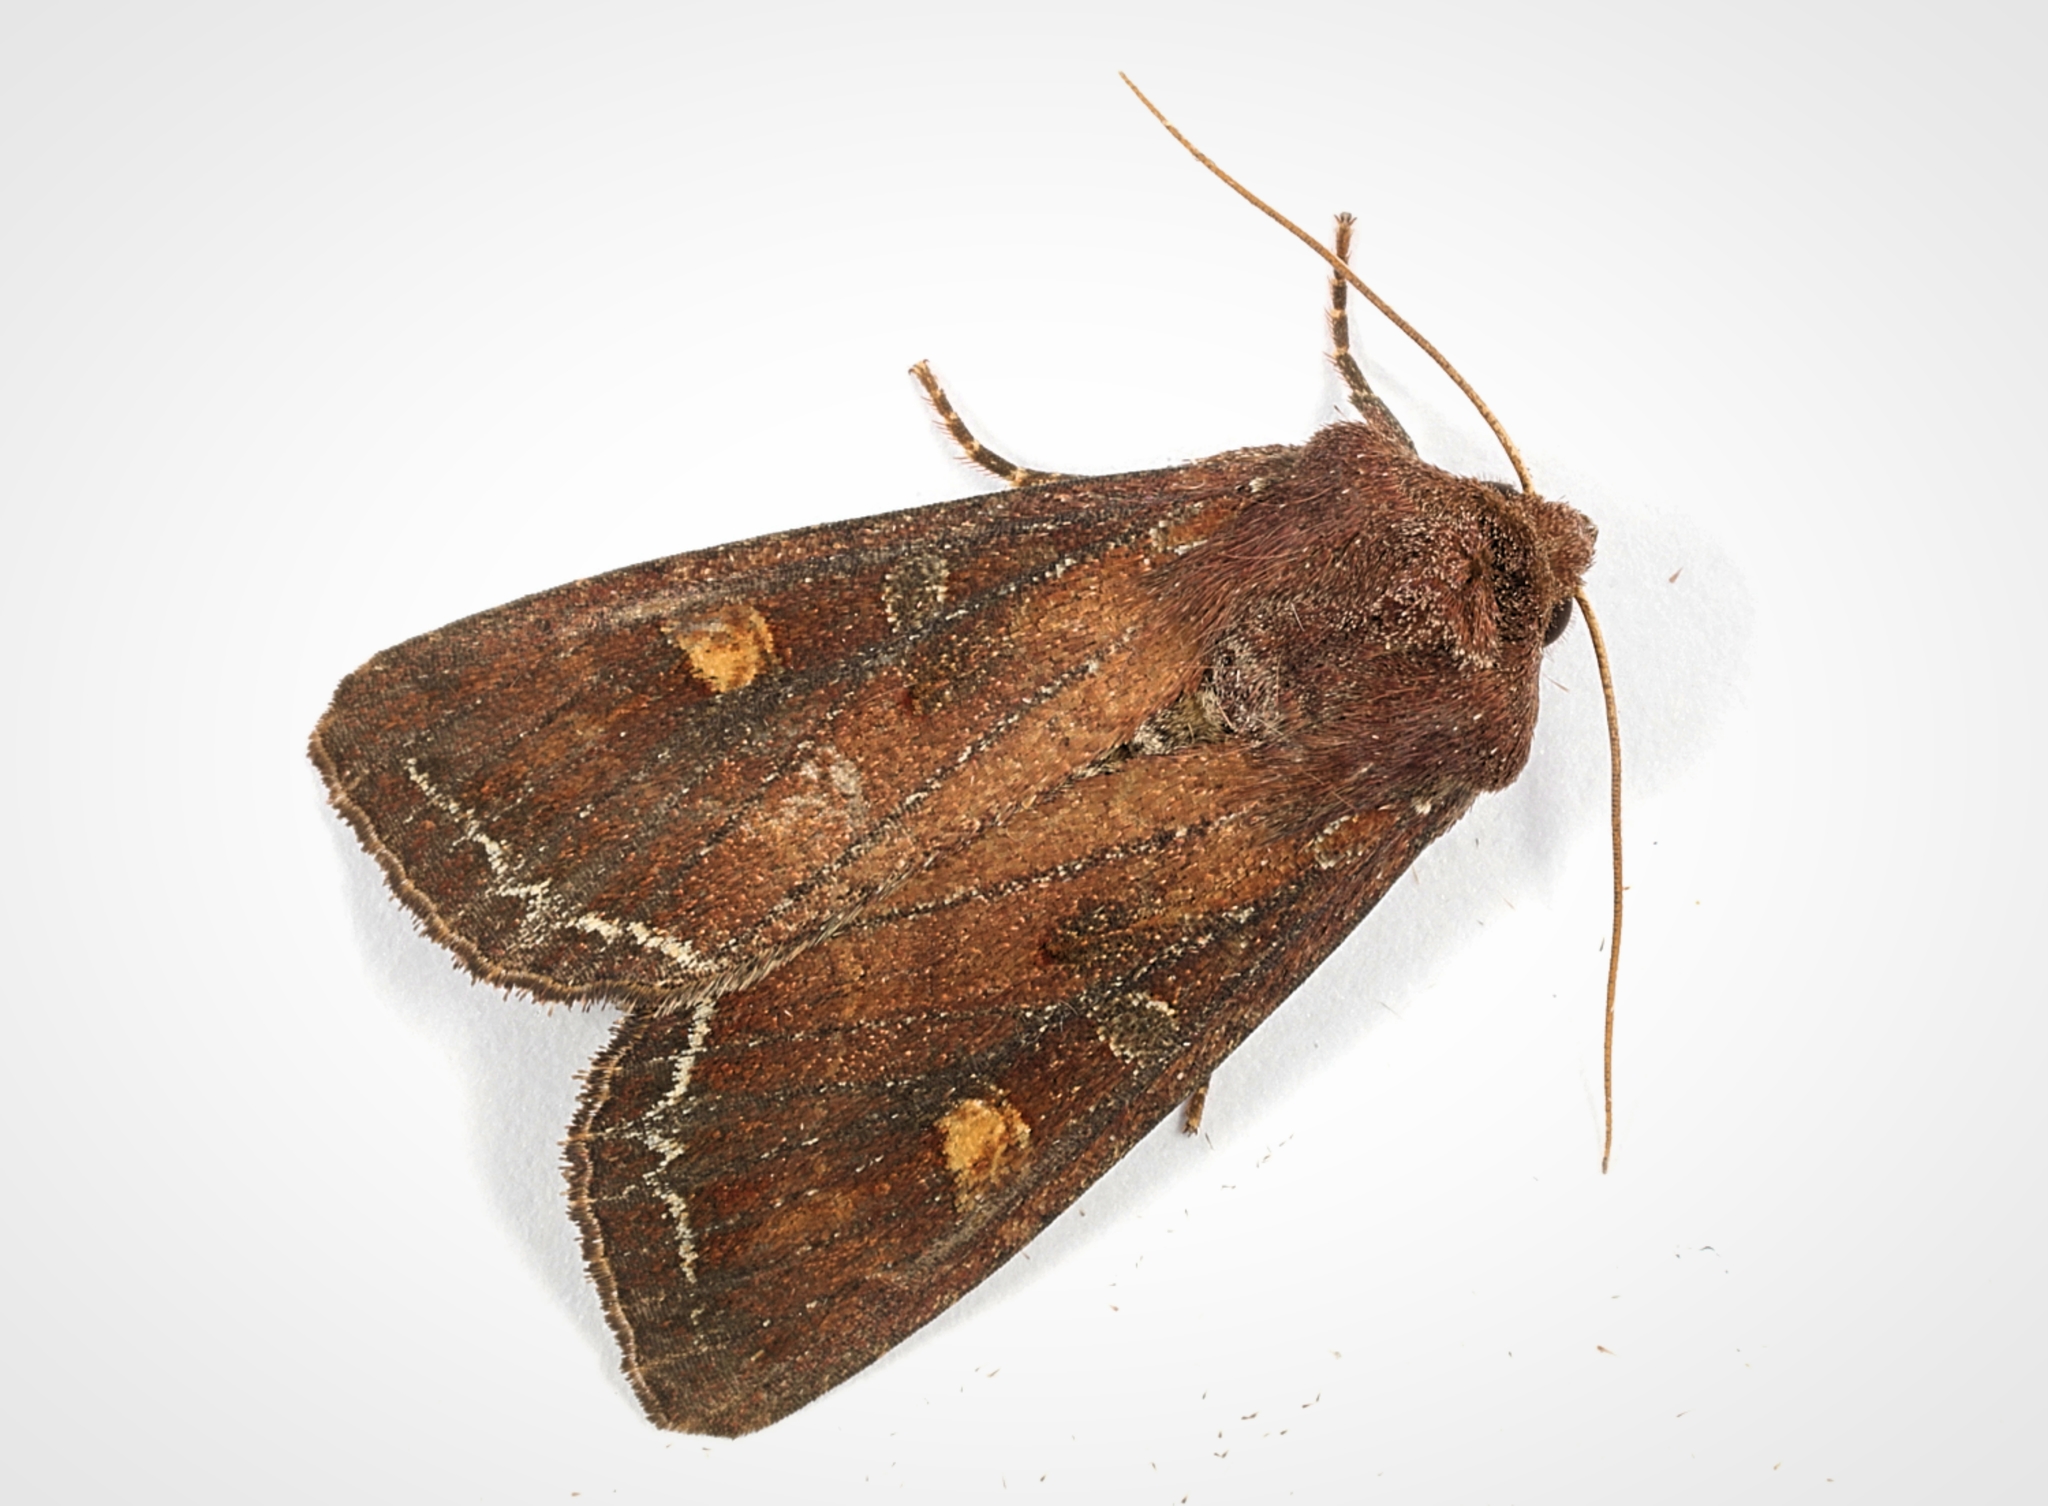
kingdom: Animalia
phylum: Arthropoda
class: Insecta
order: Lepidoptera
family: Noctuidae
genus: Lacanobia
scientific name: Lacanobia oleracea
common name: Bright-line brown-eye
